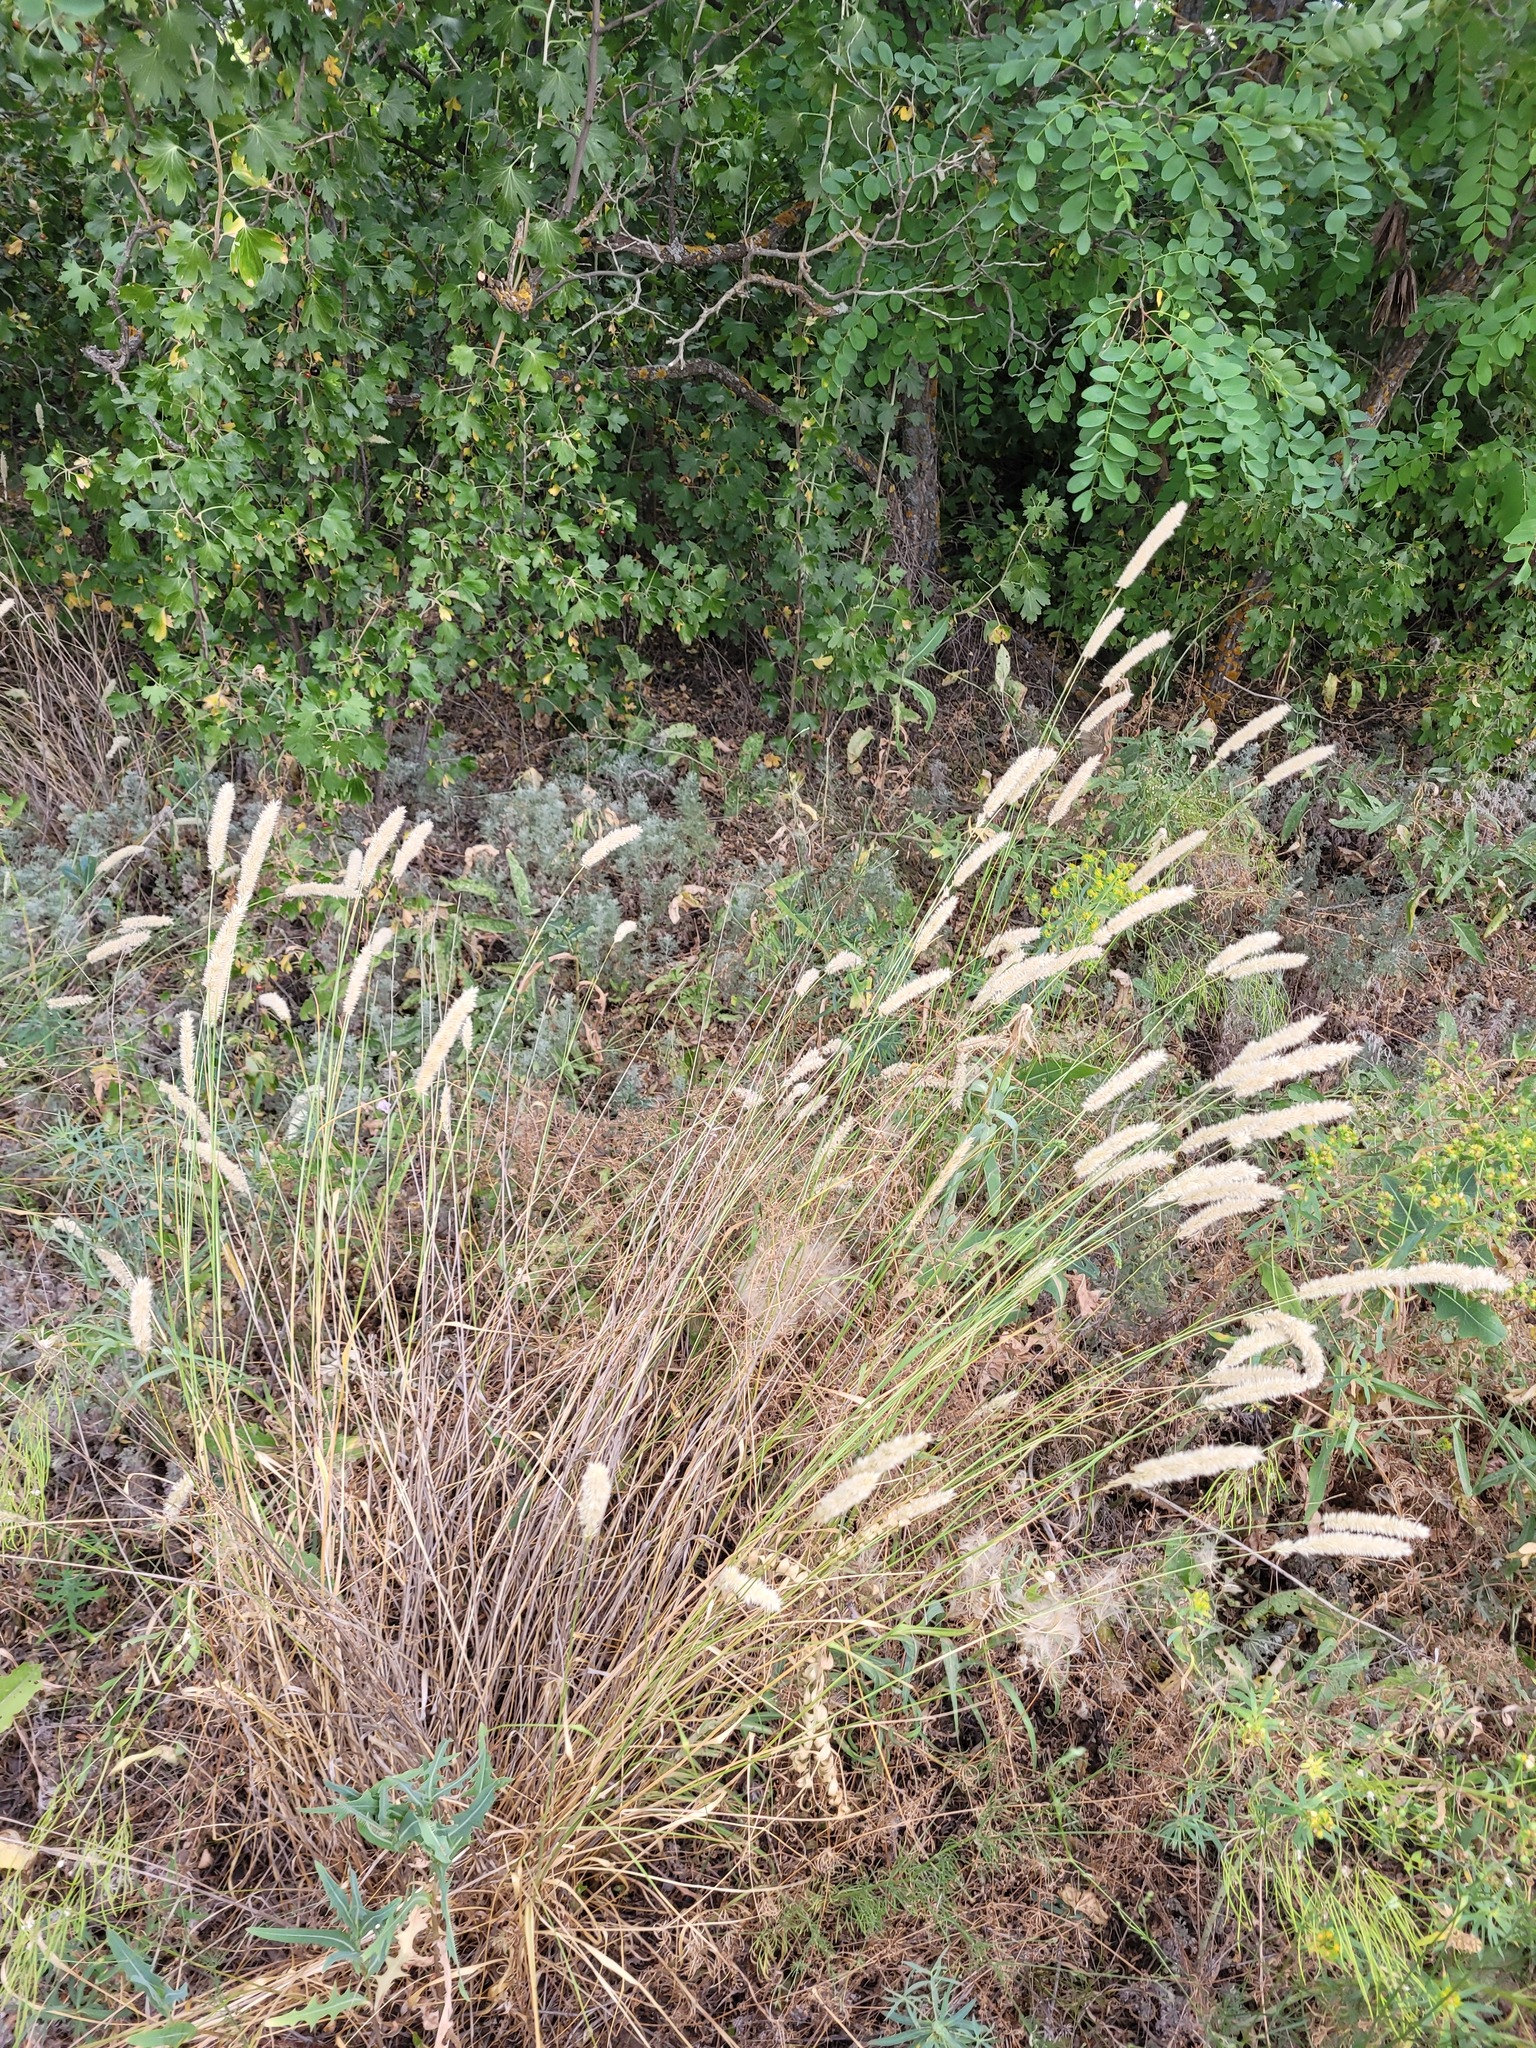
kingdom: Plantae
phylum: Tracheophyta
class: Liliopsida
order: Poales
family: Poaceae
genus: Melica
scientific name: Melica transsilvanica
